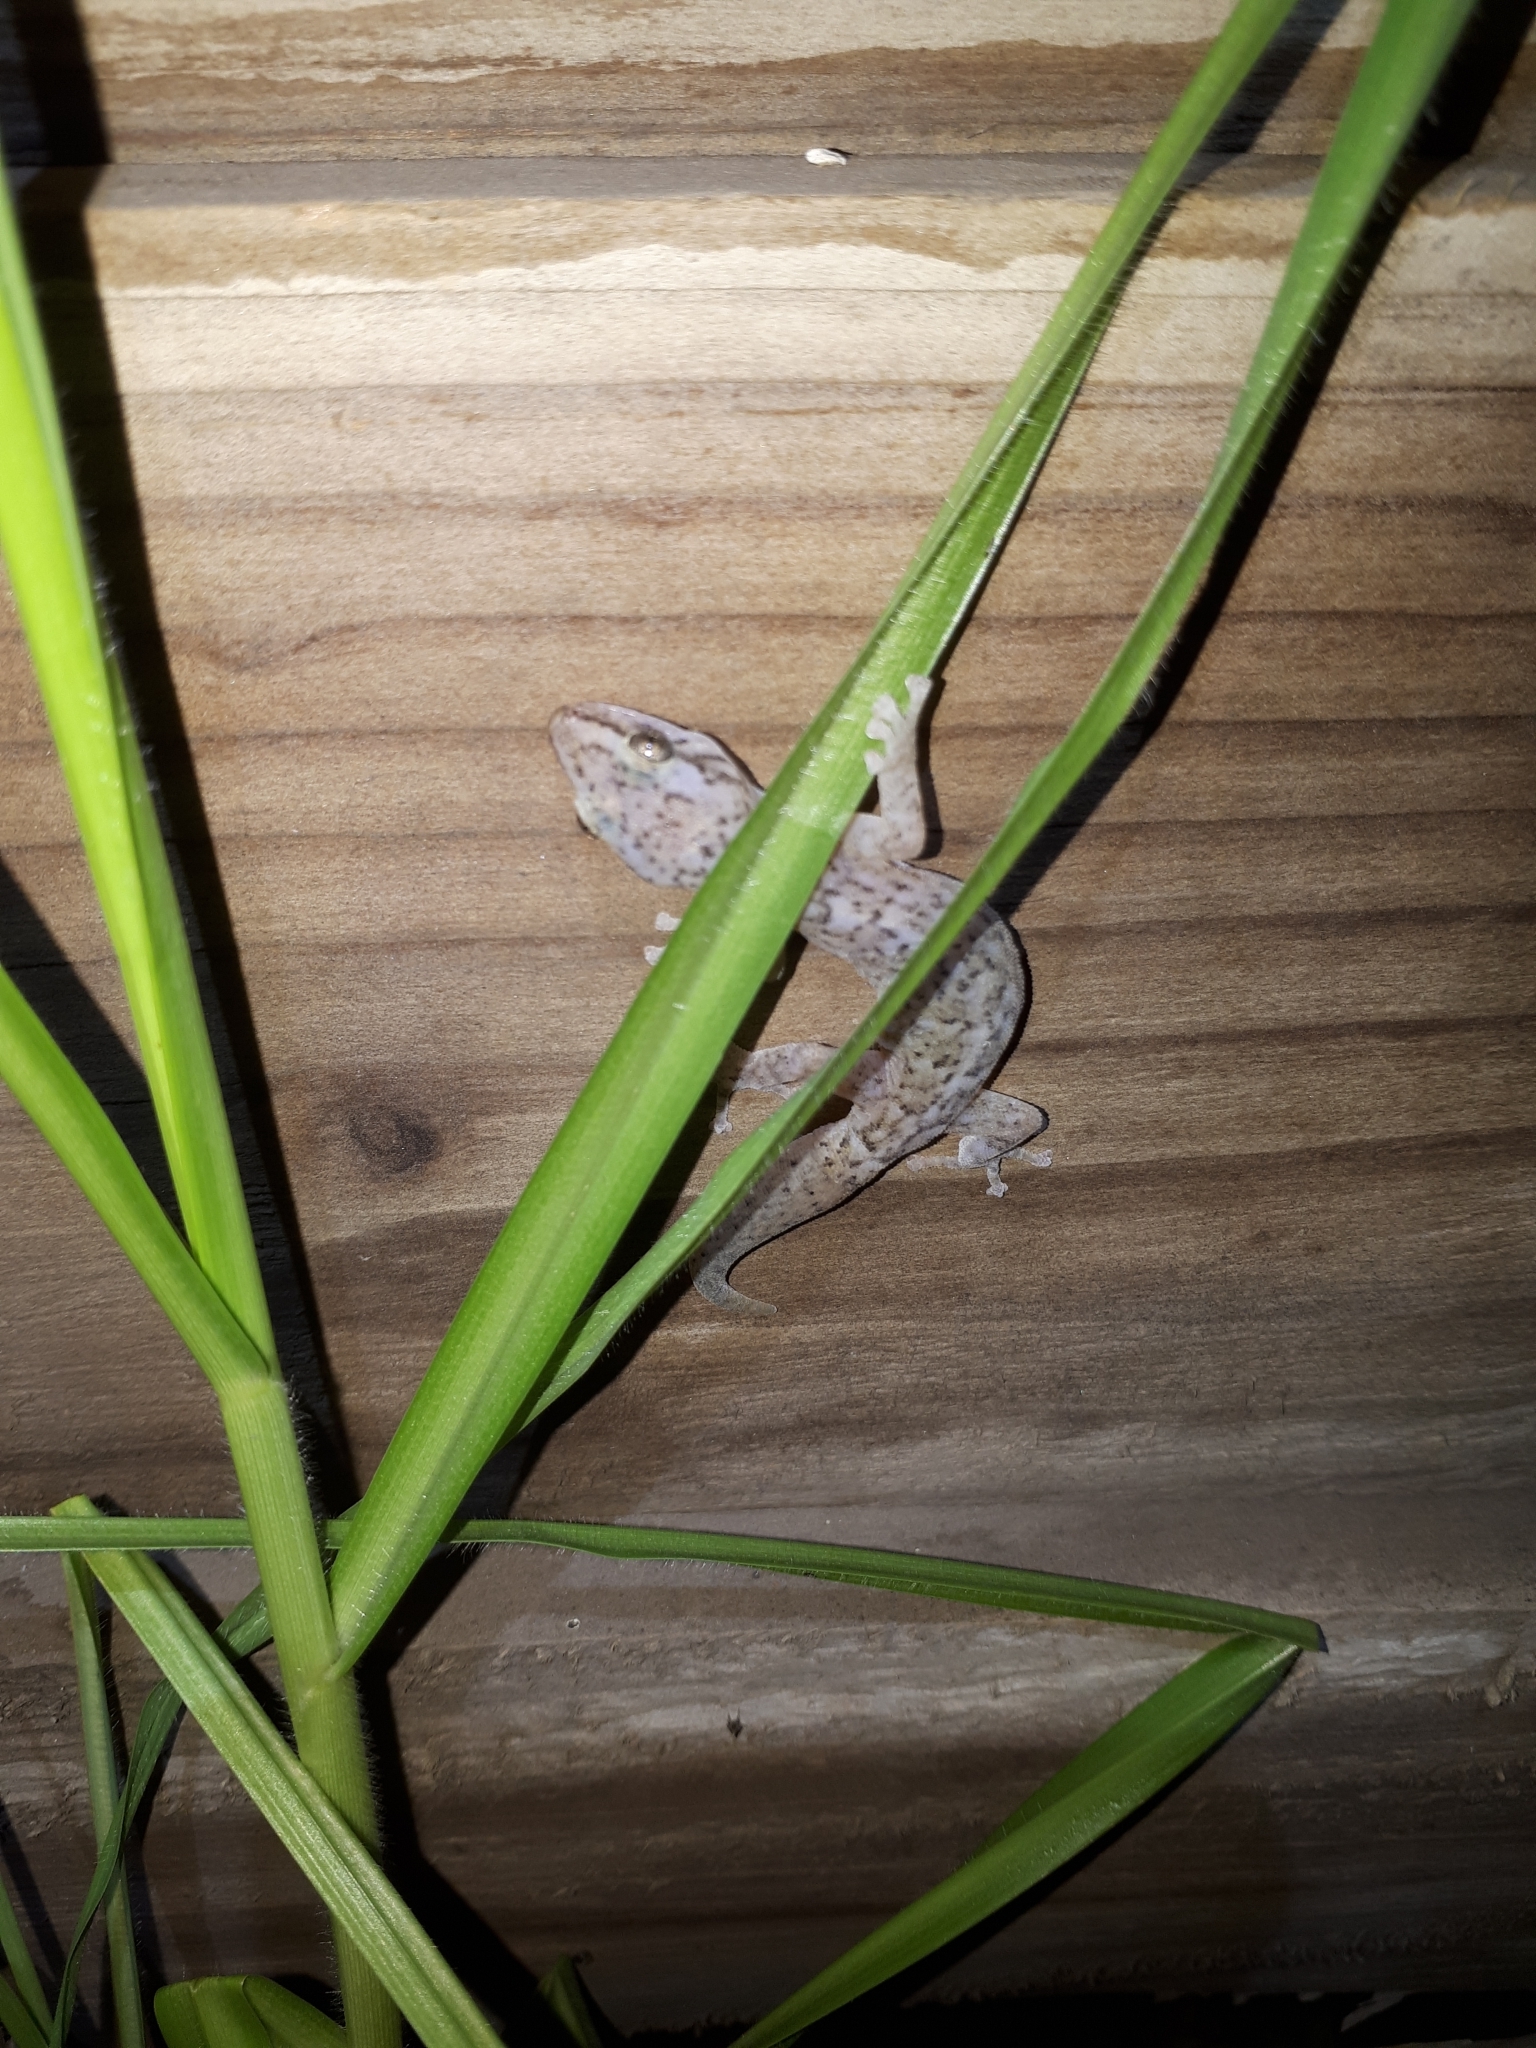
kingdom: Animalia
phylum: Chordata
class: Squamata
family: Gekkonidae
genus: Afrogecko
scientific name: Afrogecko porphyreus
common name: Marbled leaf-toed gecko
